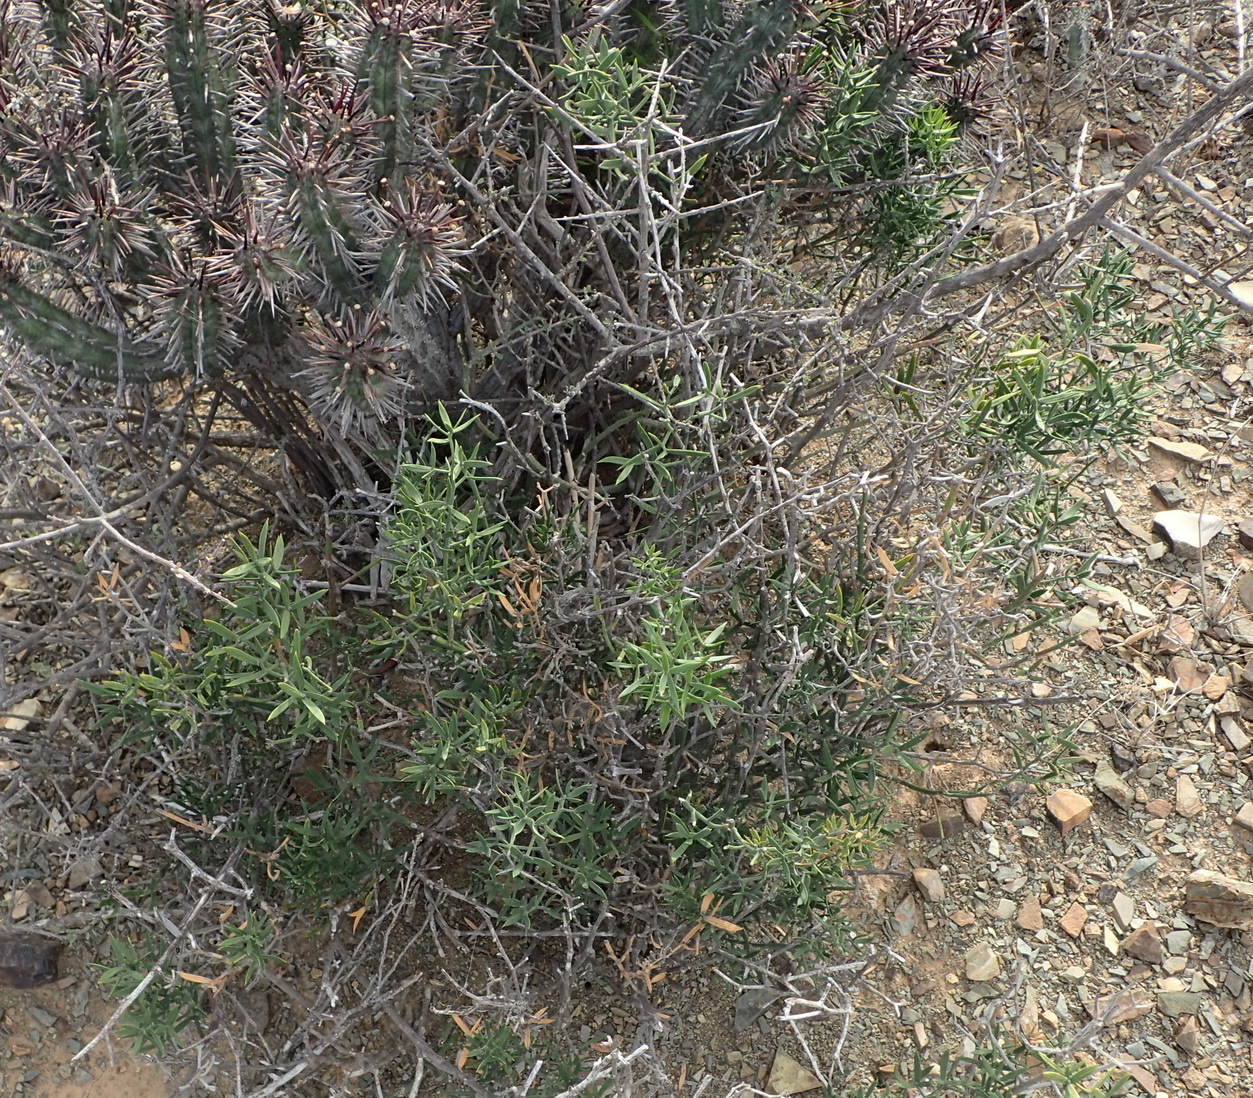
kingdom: Plantae
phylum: Tracheophyta
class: Liliopsida
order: Asparagales
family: Asparagaceae
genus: Asparagus
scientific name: Asparagus striatus
